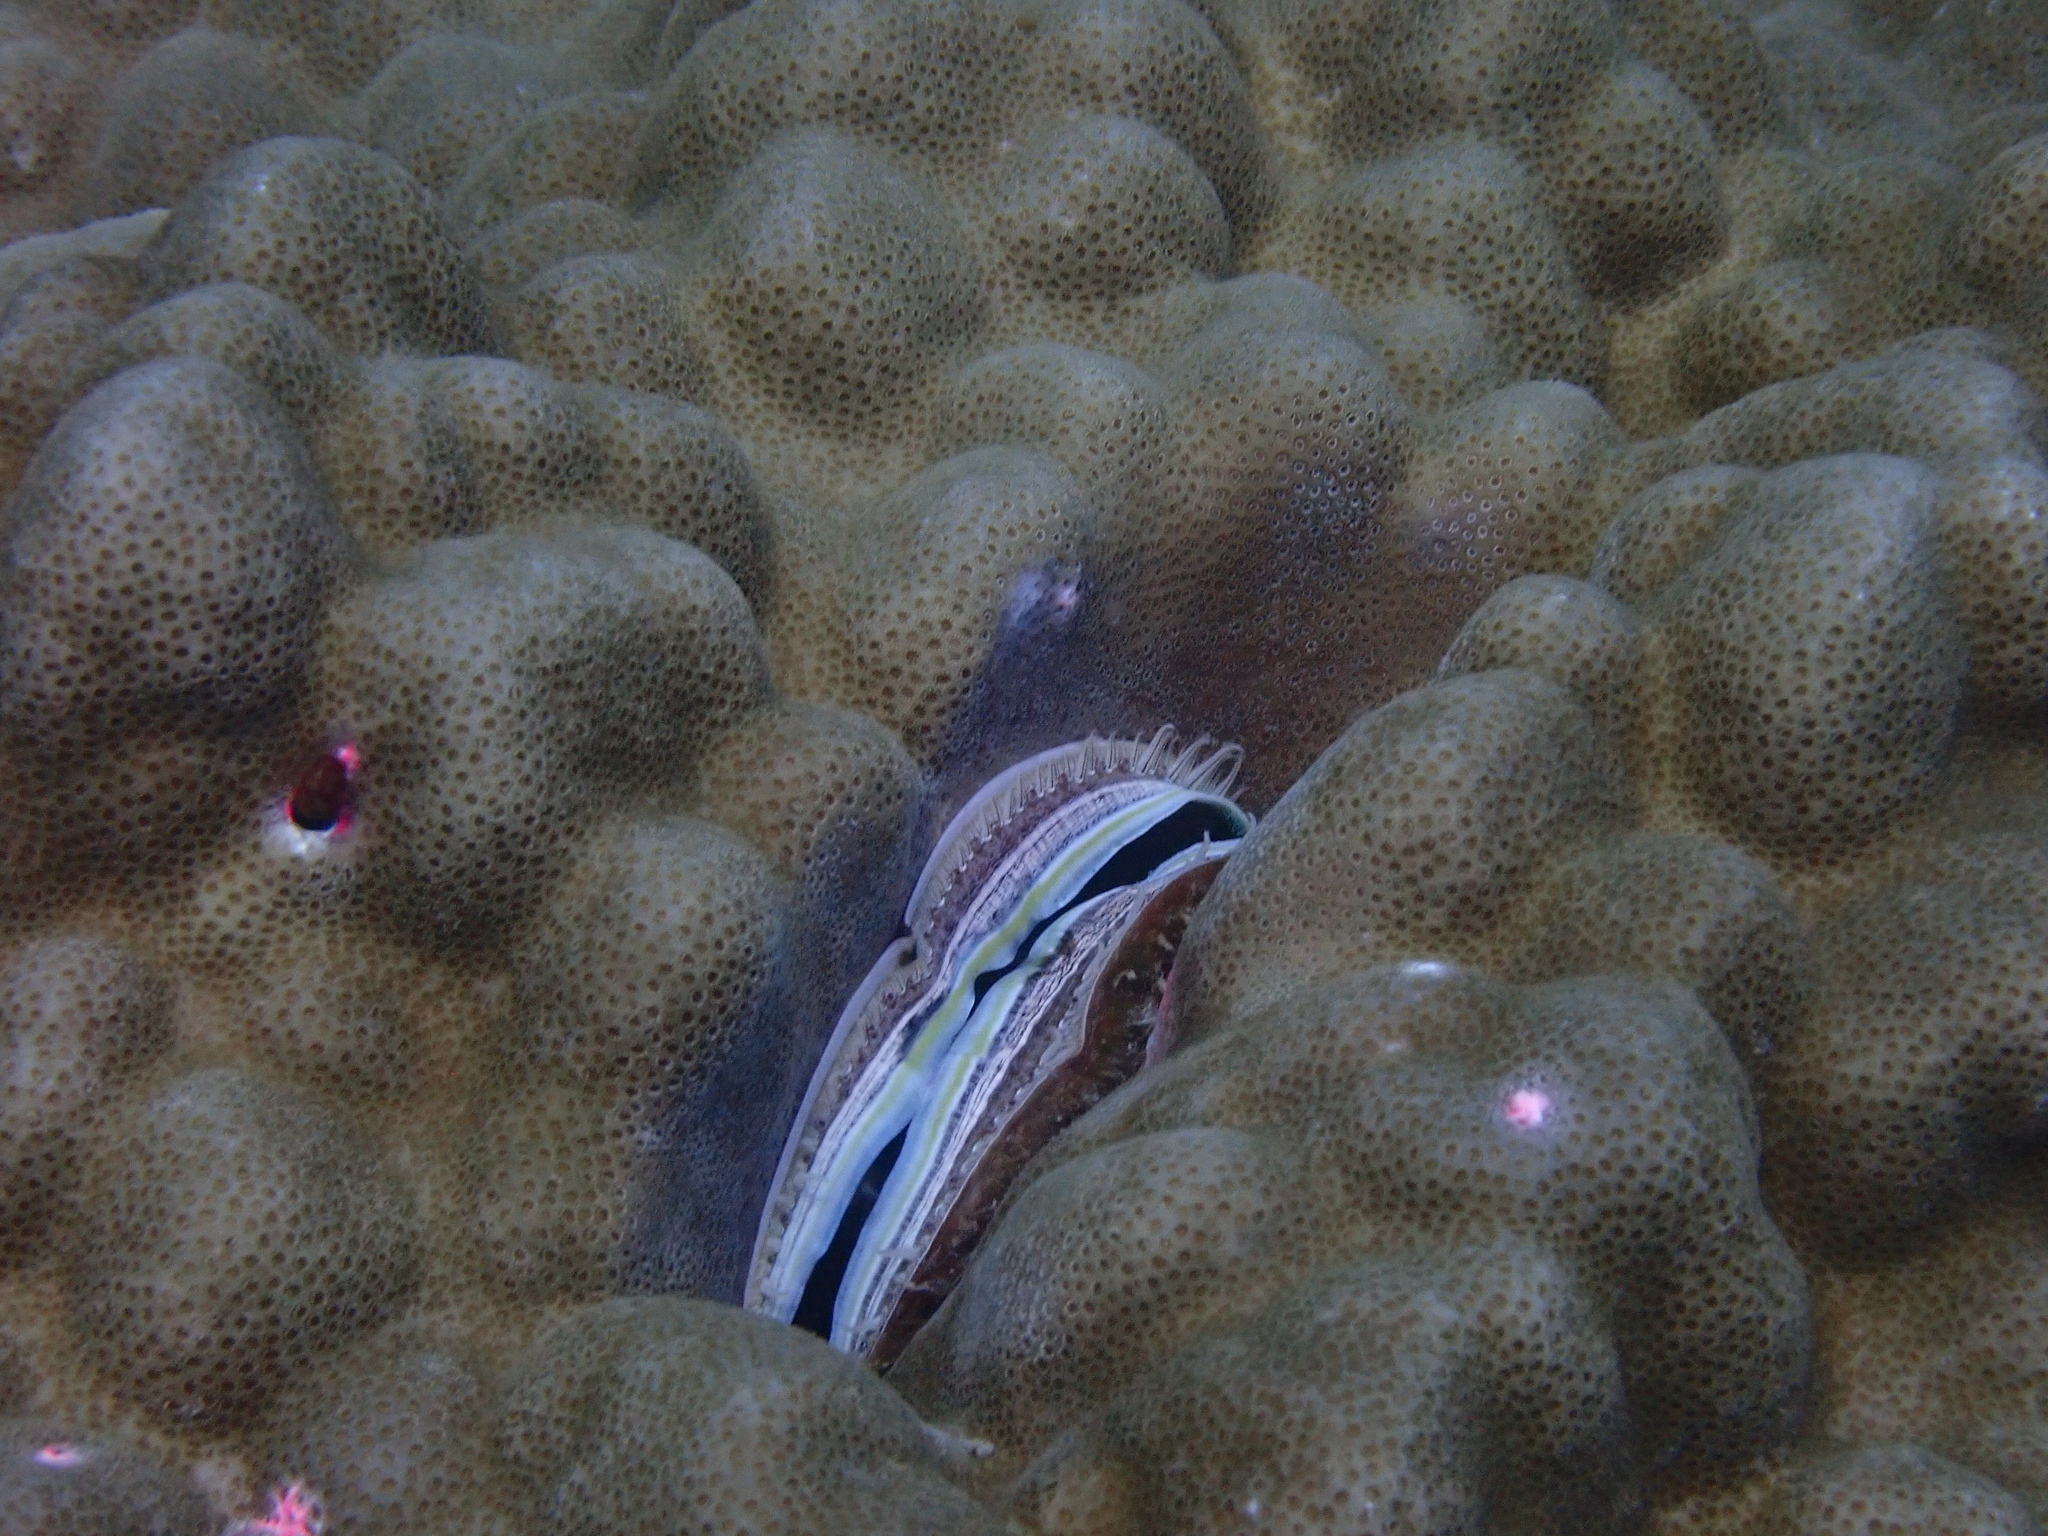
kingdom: Animalia
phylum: Mollusca
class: Bivalvia
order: Pectinida
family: Pectinidae
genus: Pedum
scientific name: Pedum spondyloideum
